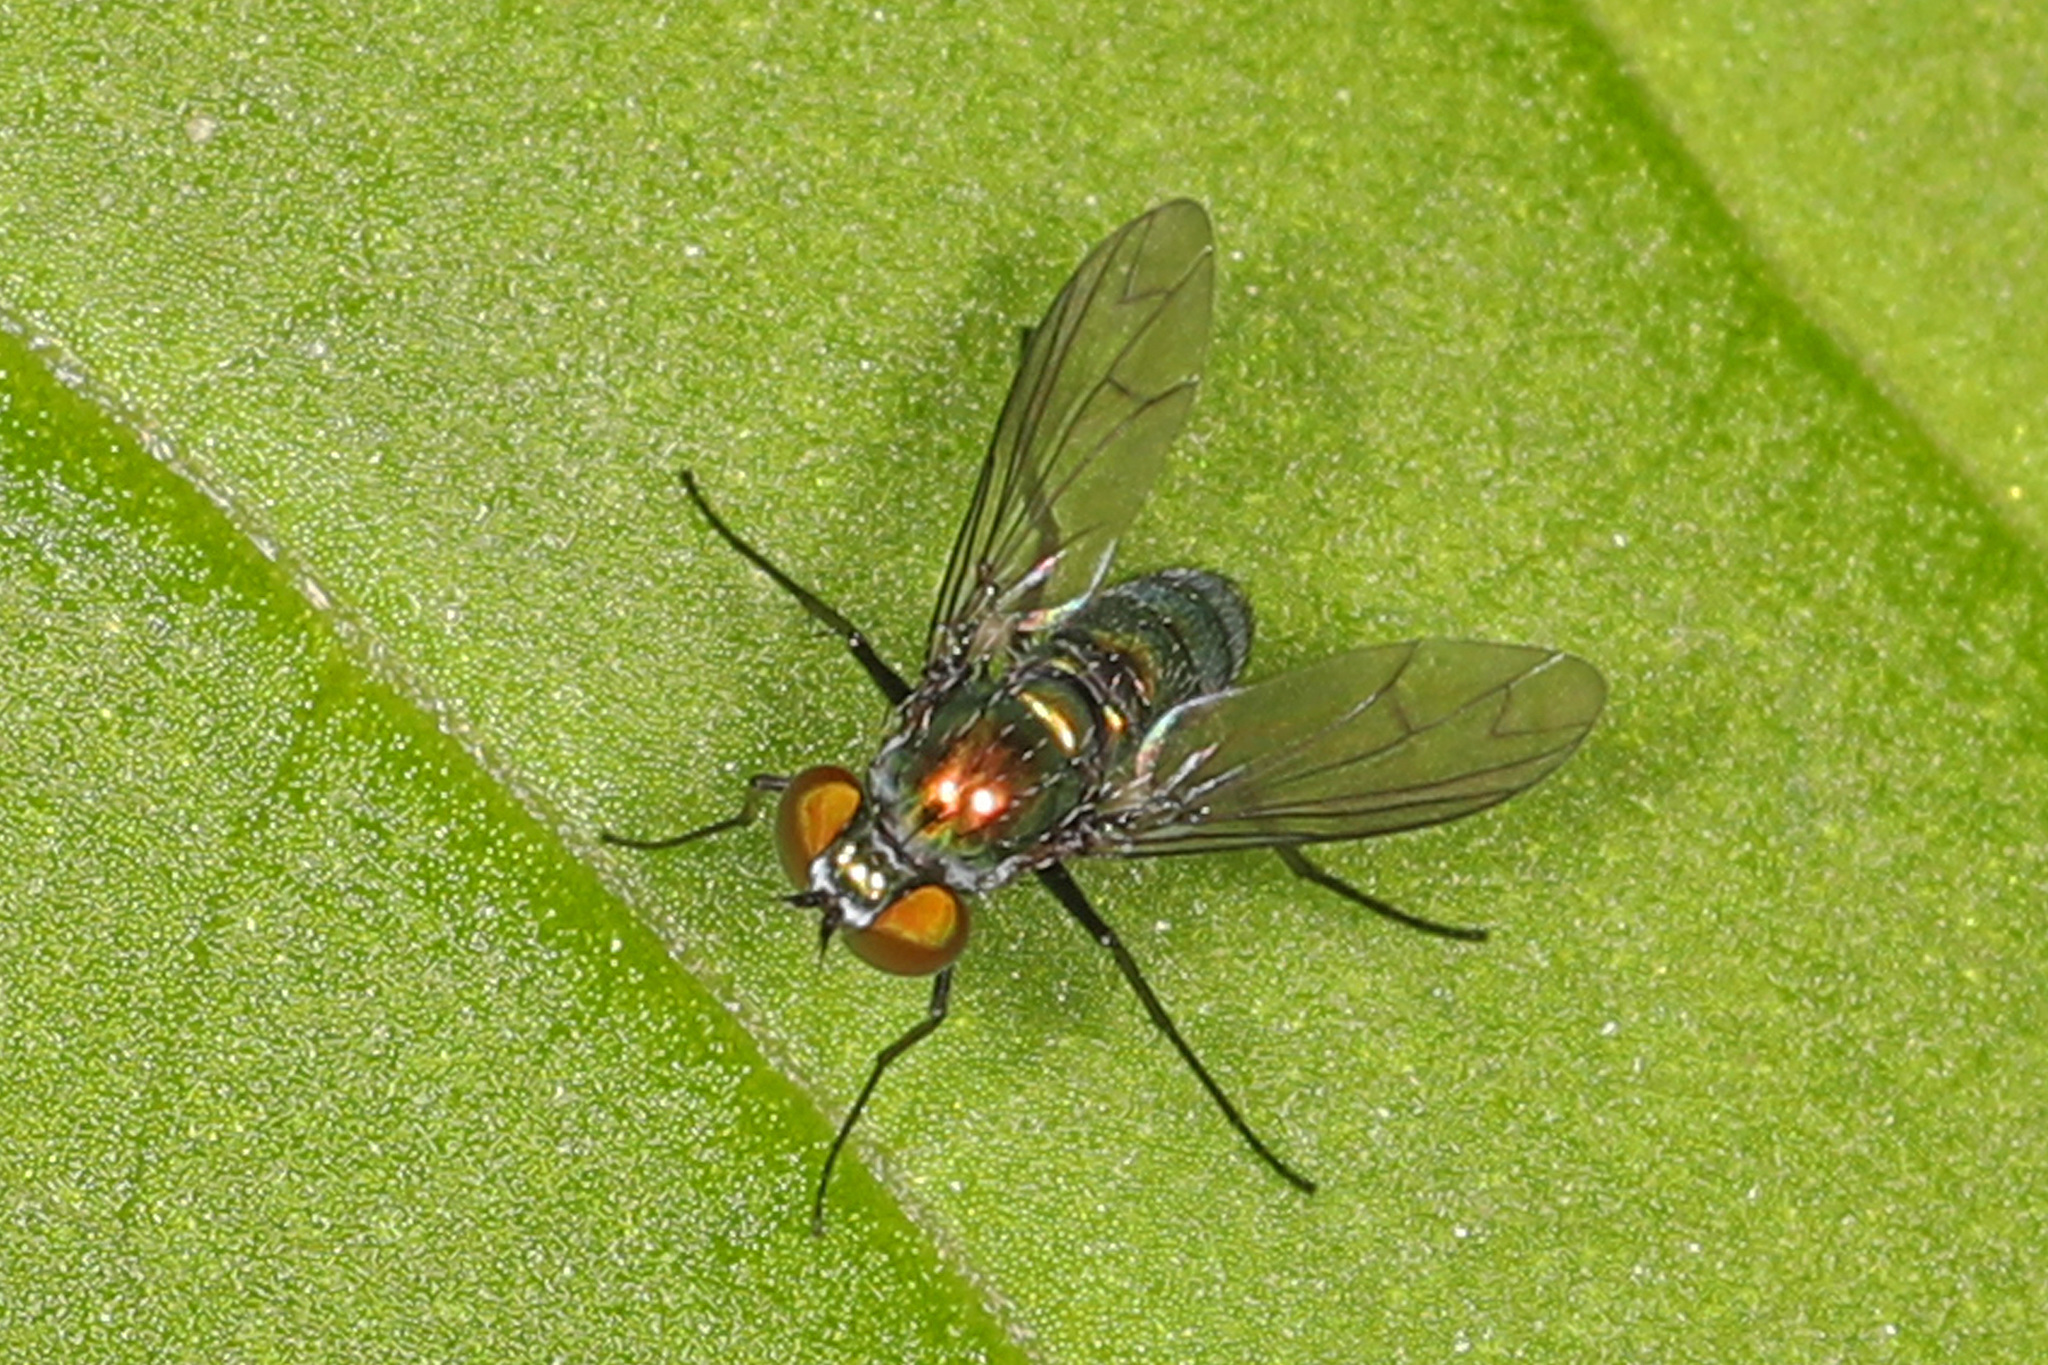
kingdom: Animalia
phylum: Arthropoda
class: Insecta
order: Diptera
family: Dolichopodidae
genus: Condylostylus
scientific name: Condylostylus patibulatus
